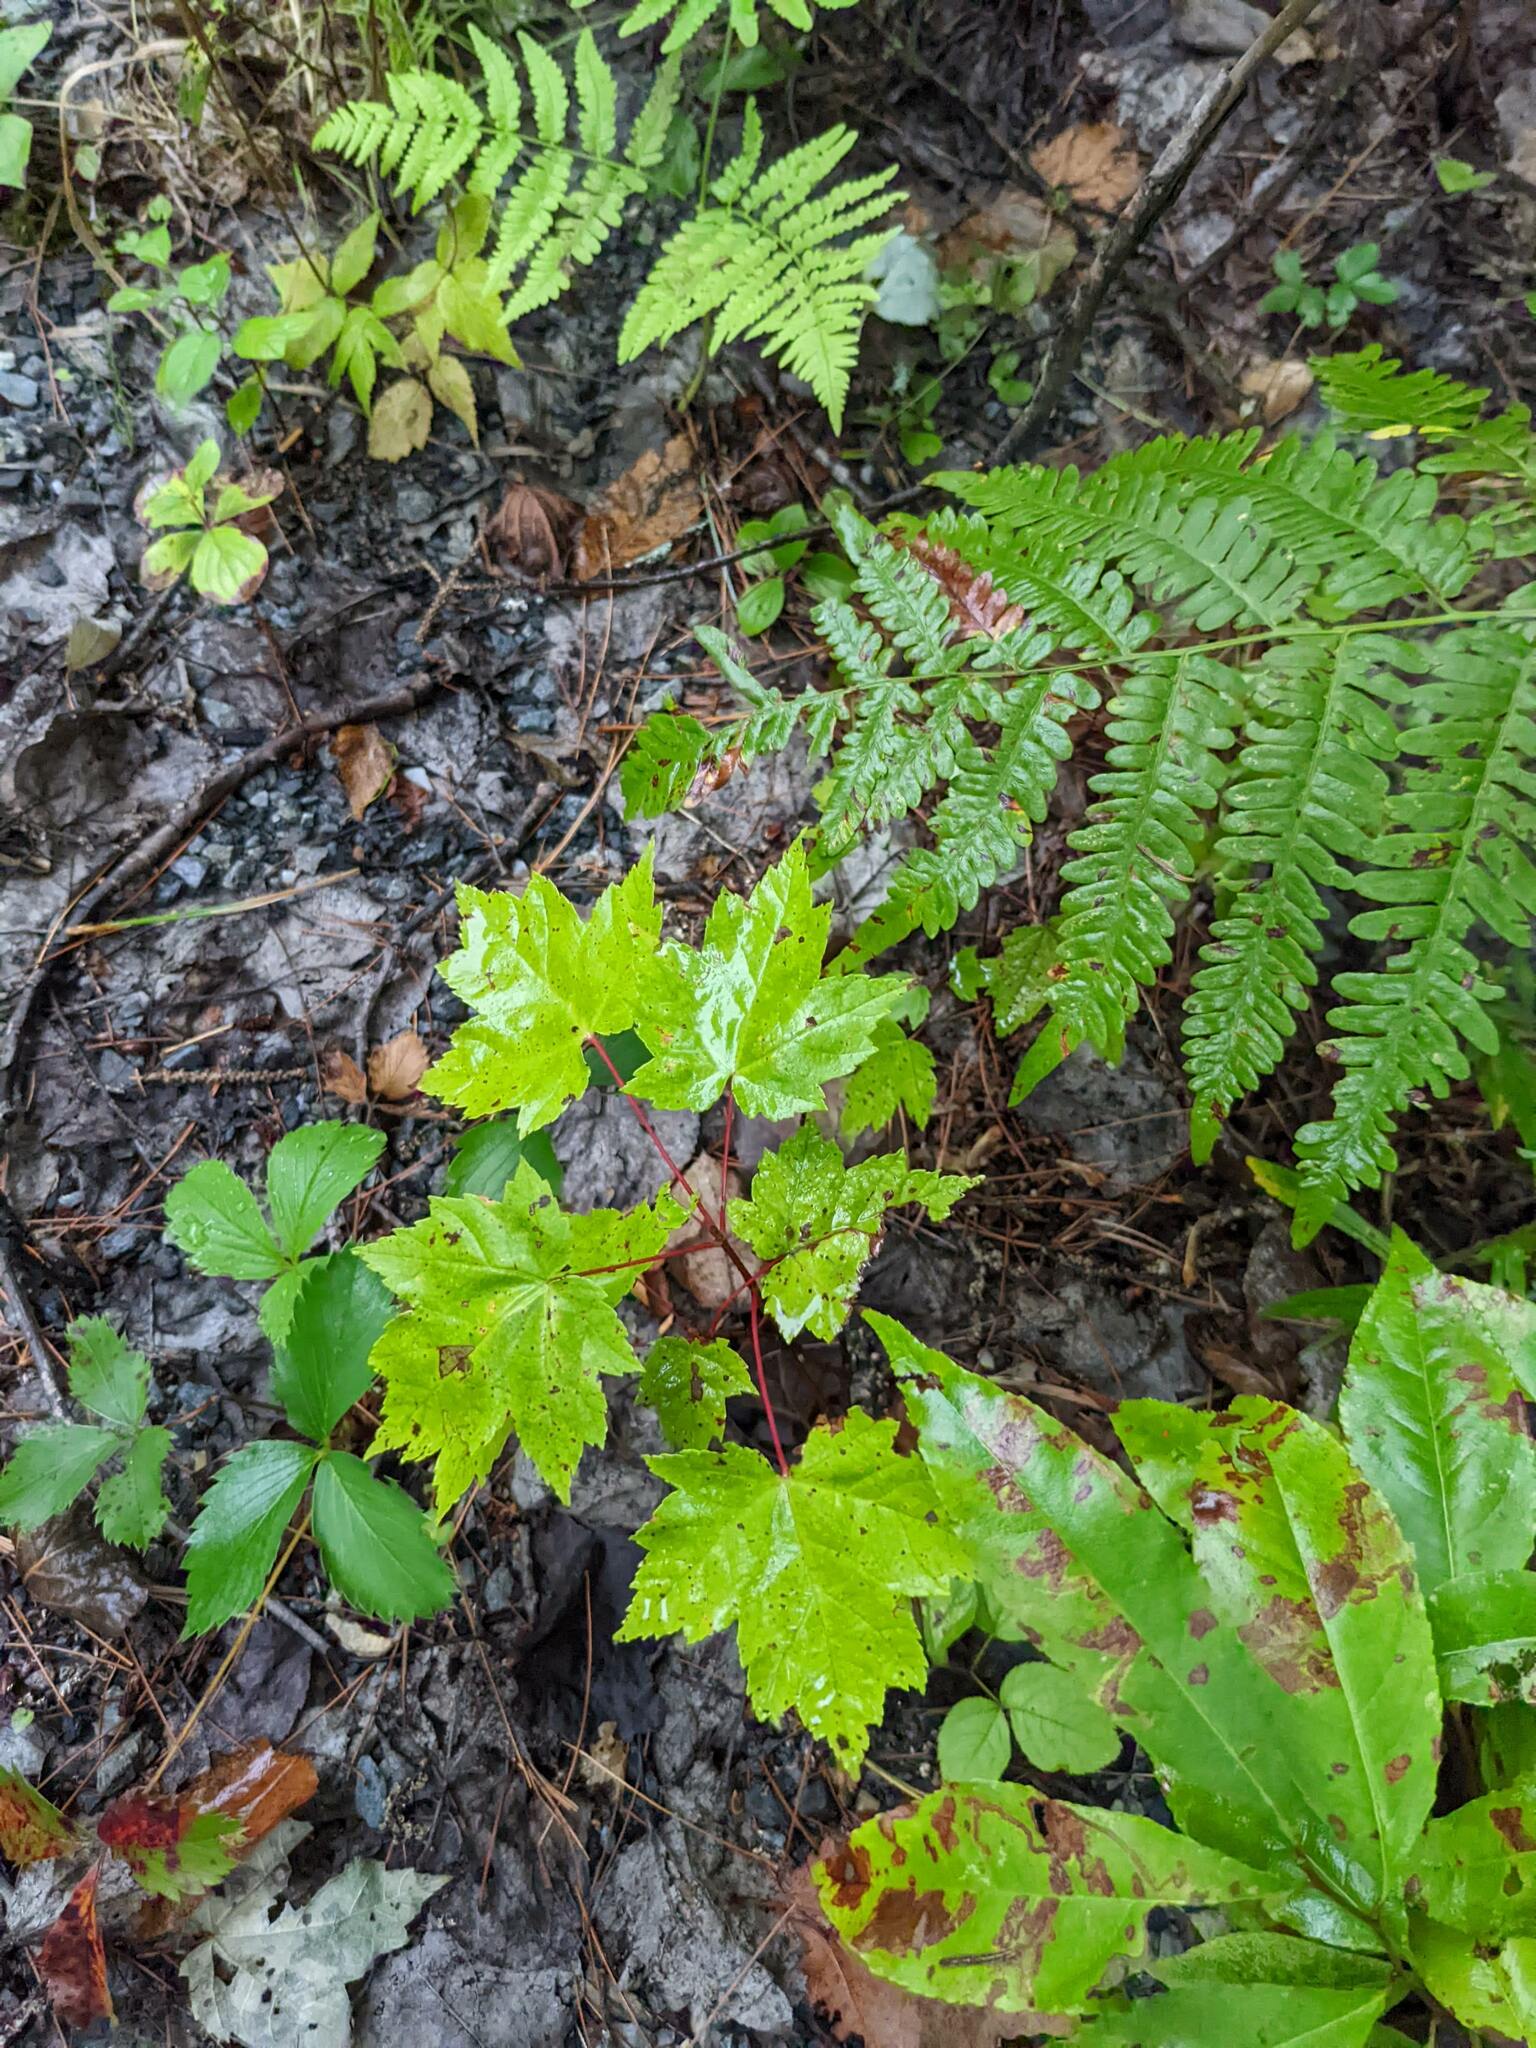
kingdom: Plantae
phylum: Tracheophyta
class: Magnoliopsida
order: Sapindales
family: Sapindaceae
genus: Acer
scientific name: Acer rubrum
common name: Red maple
